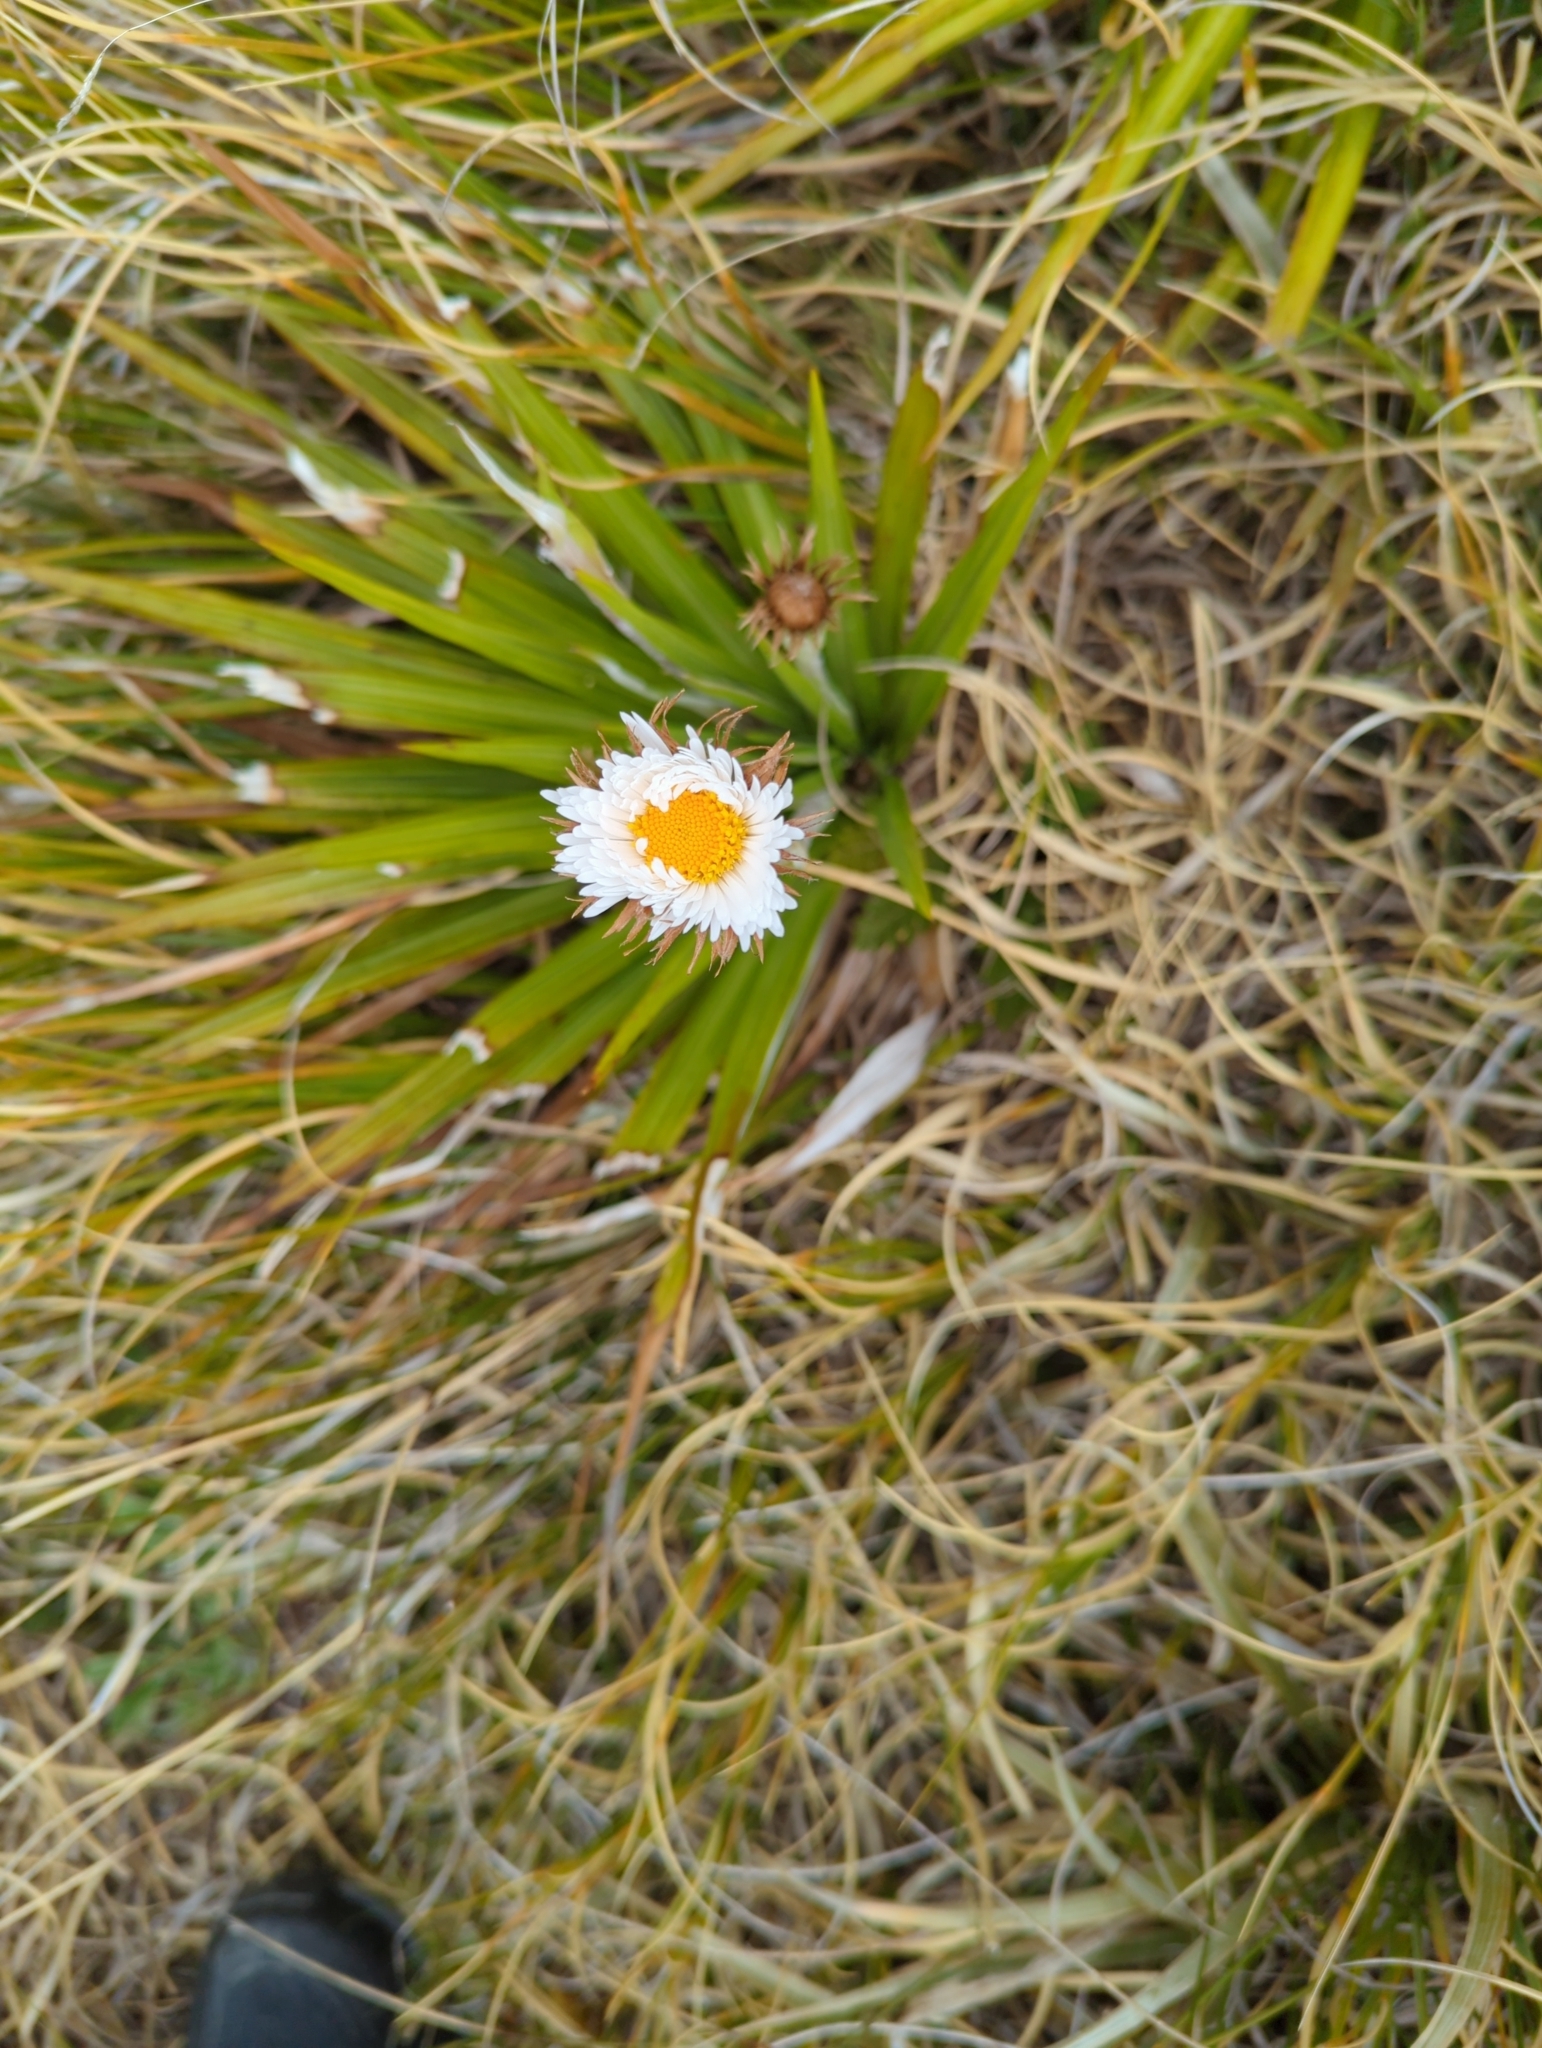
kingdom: Plantae
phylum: Tracheophyta
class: Magnoliopsida
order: Asterales
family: Asteraceae
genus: Celmisia
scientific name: Celmisia petriei
